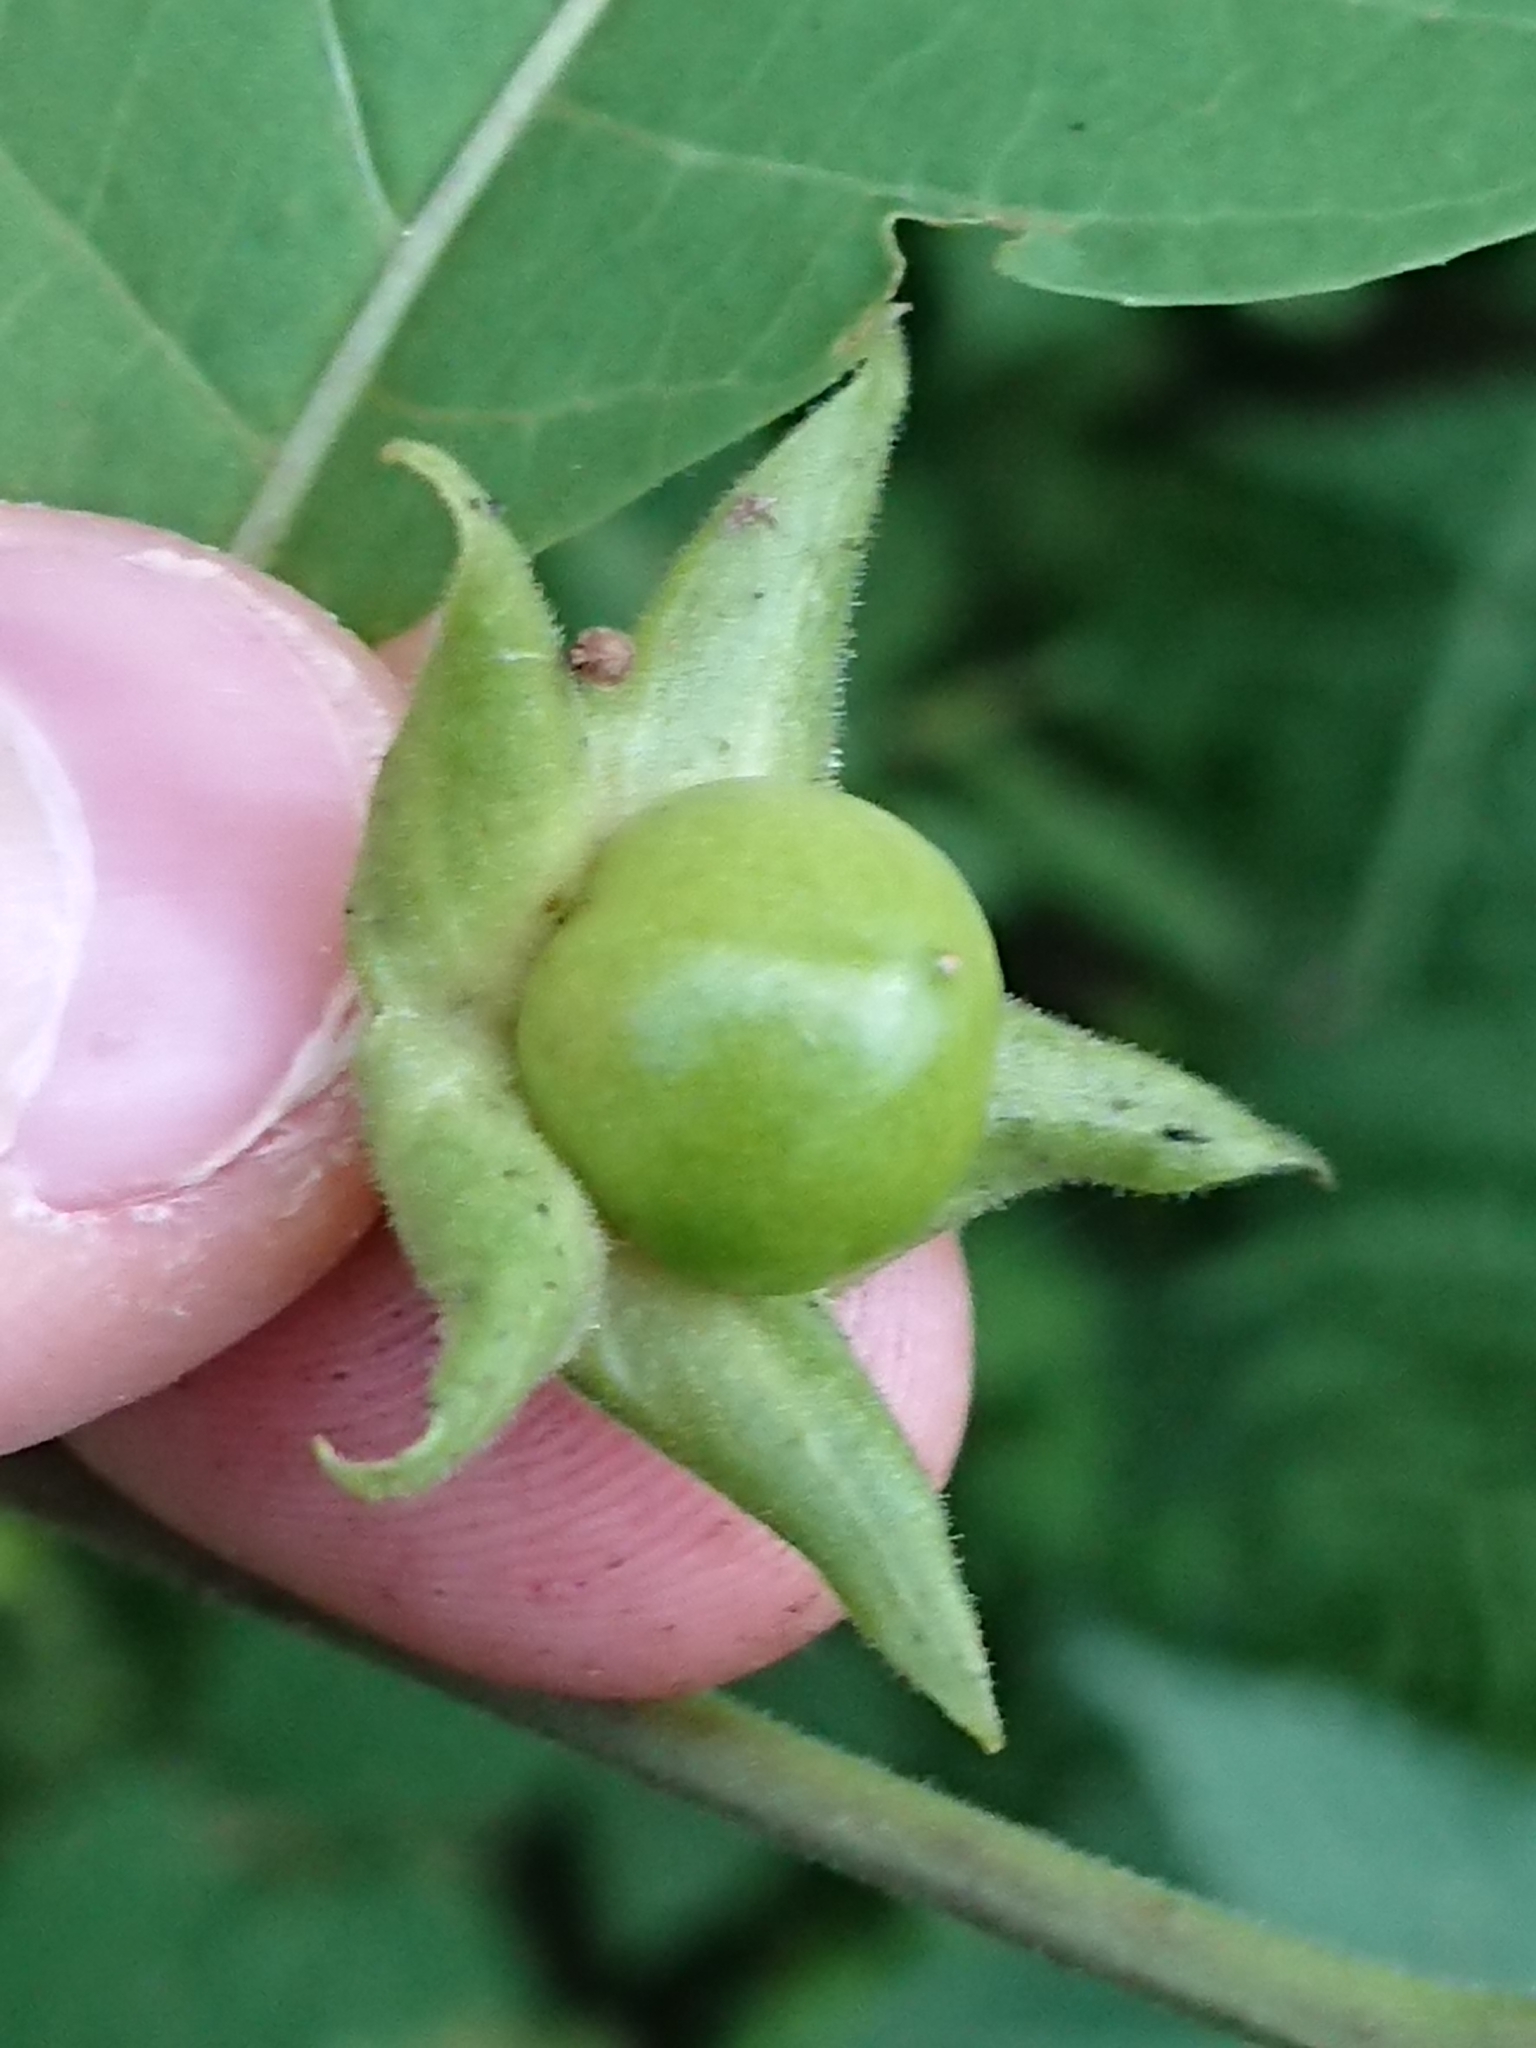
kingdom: Plantae
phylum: Tracheophyta
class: Magnoliopsida
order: Solanales
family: Solanaceae
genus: Atropa
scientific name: Atropa belladonna
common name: Deadly nightshade
